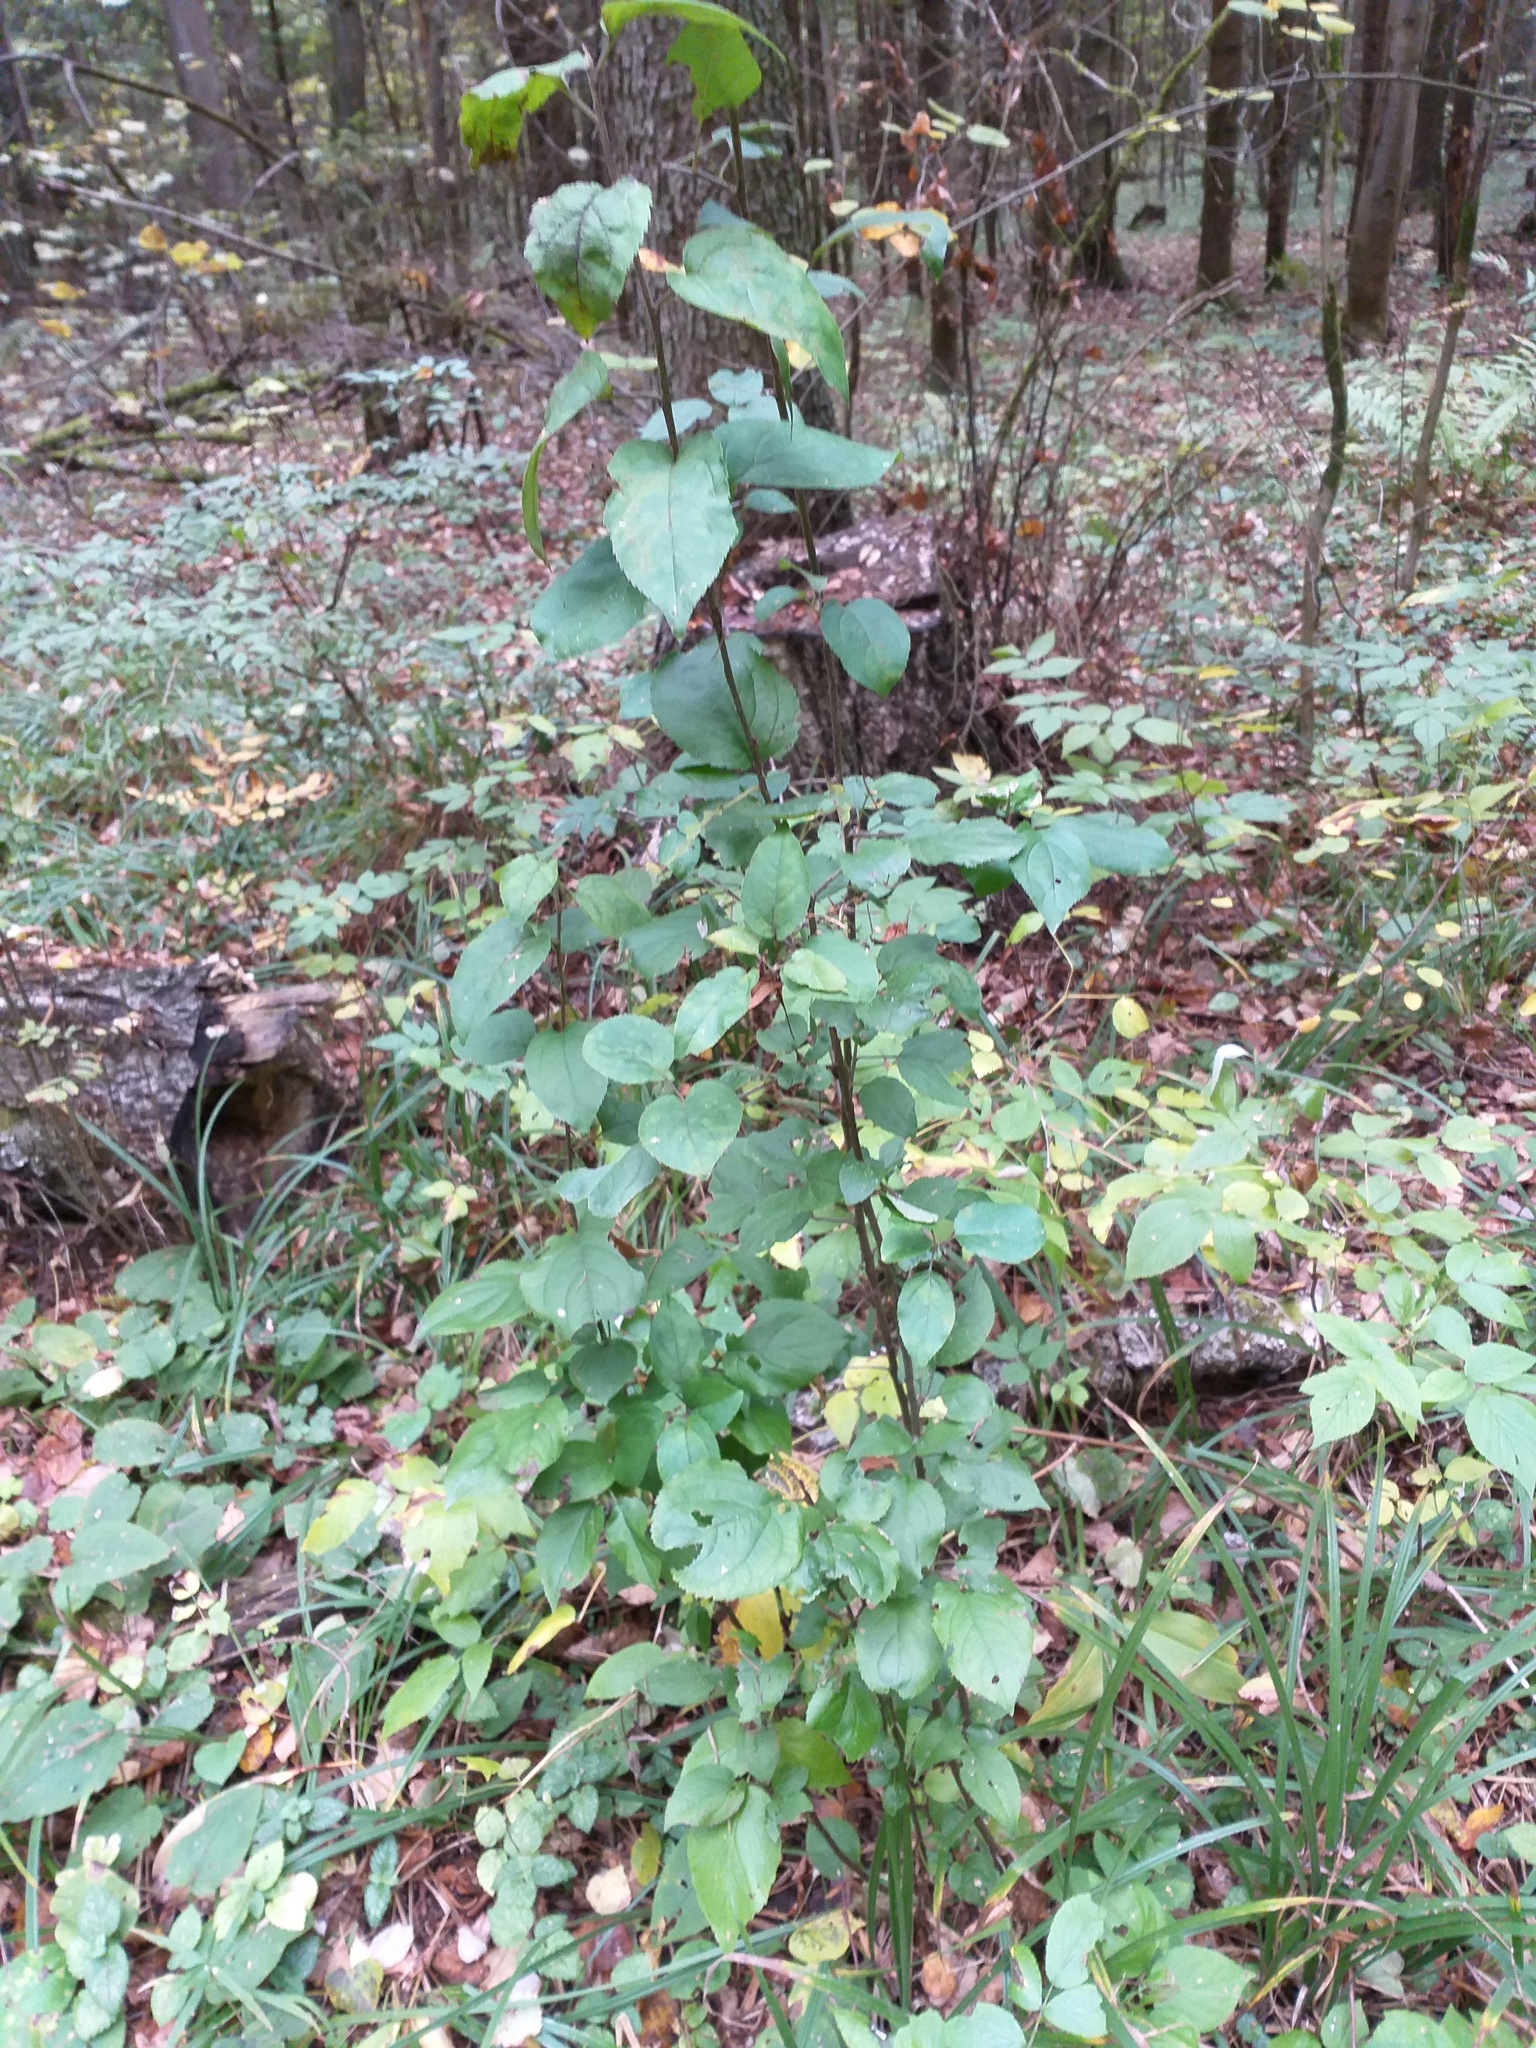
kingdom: Plantae
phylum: Tracheophyta
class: Magnoliopsida
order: Rosales
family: Rosaceae
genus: Malus
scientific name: Malus domestica
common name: Apple
